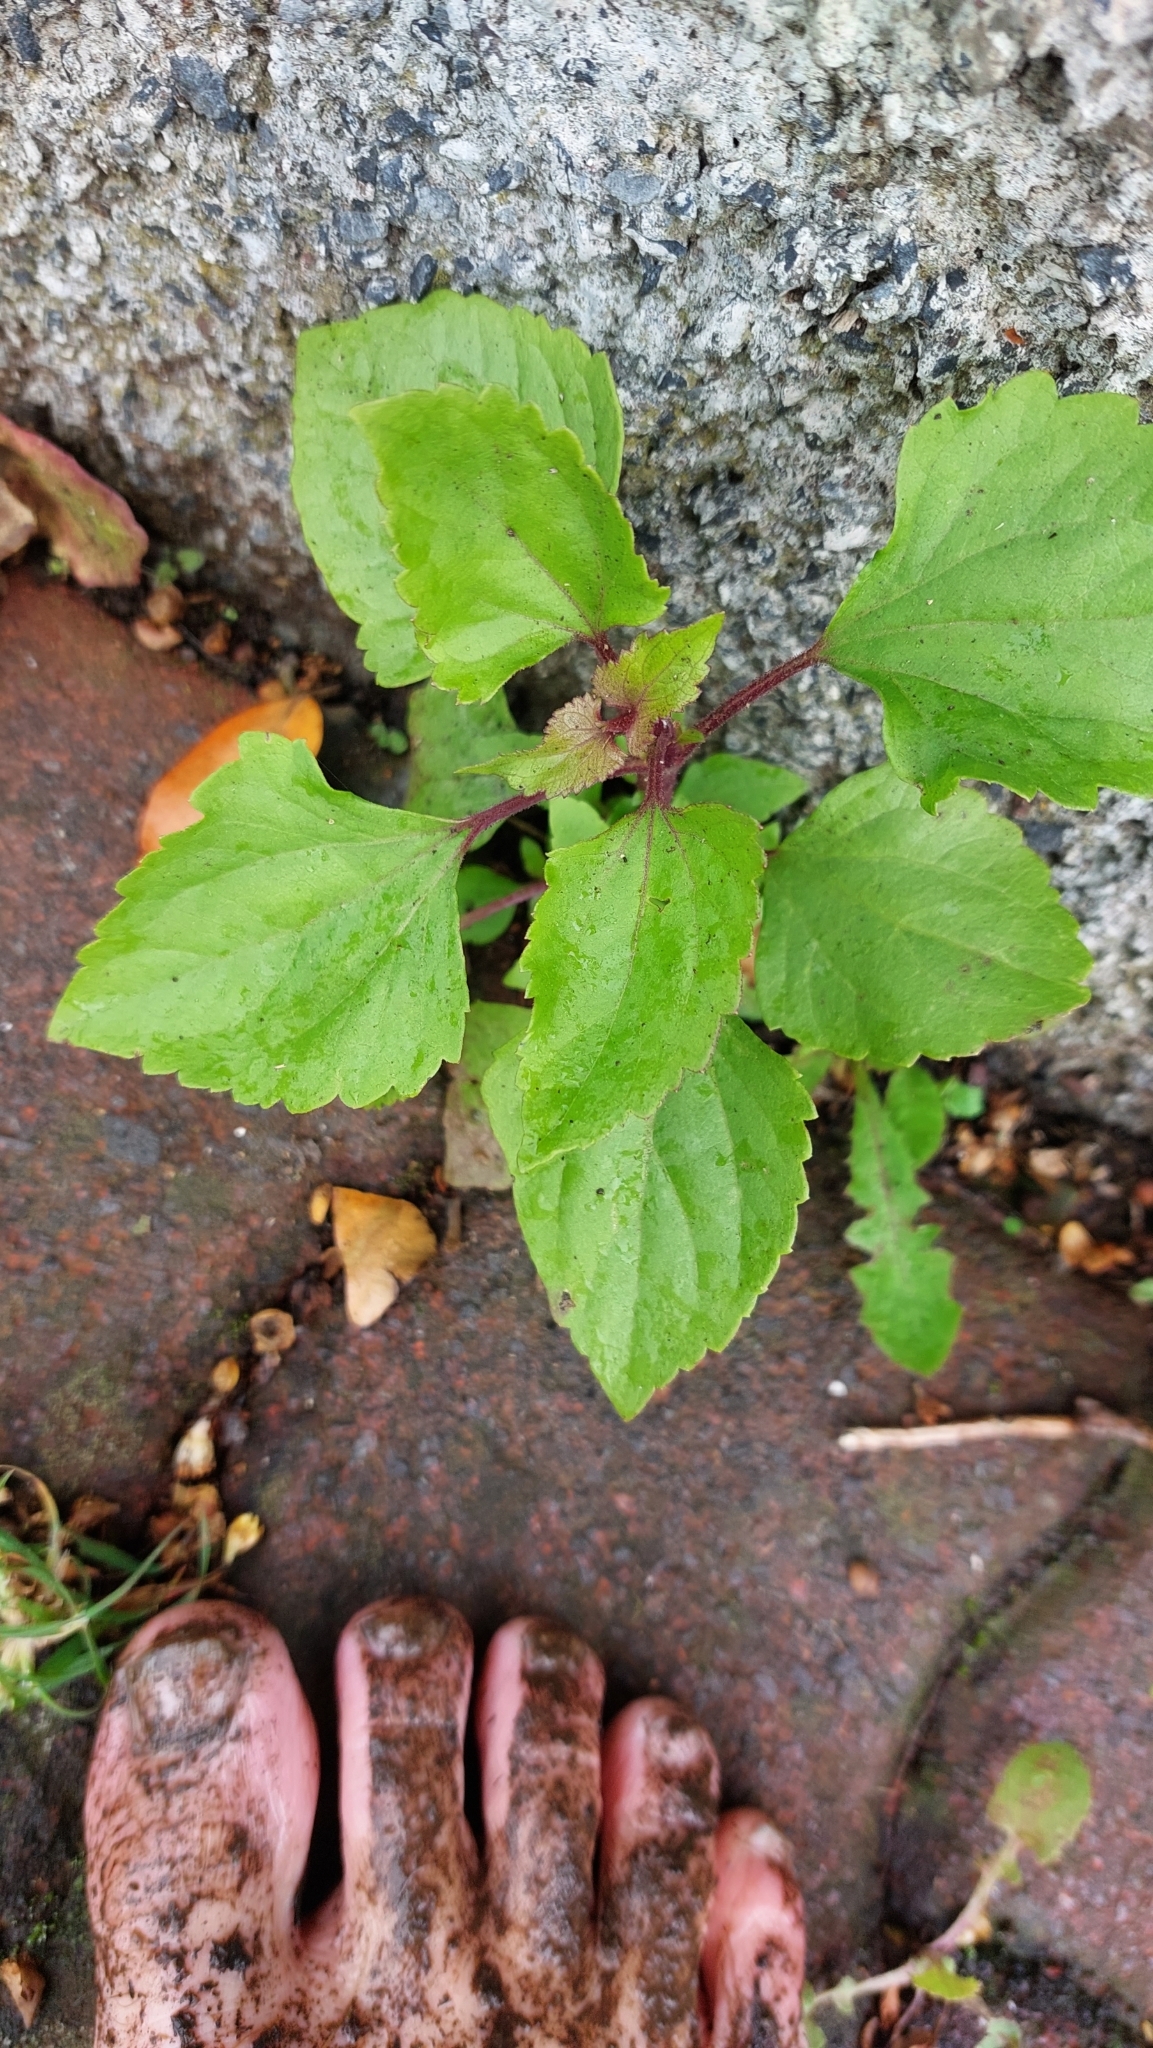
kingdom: Plantae
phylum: Tracheophyta
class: Magnoliopsida
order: Asterales
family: Asteraceae
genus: Ageratina
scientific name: Ageratina adenophora
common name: Sticky snakeroot
